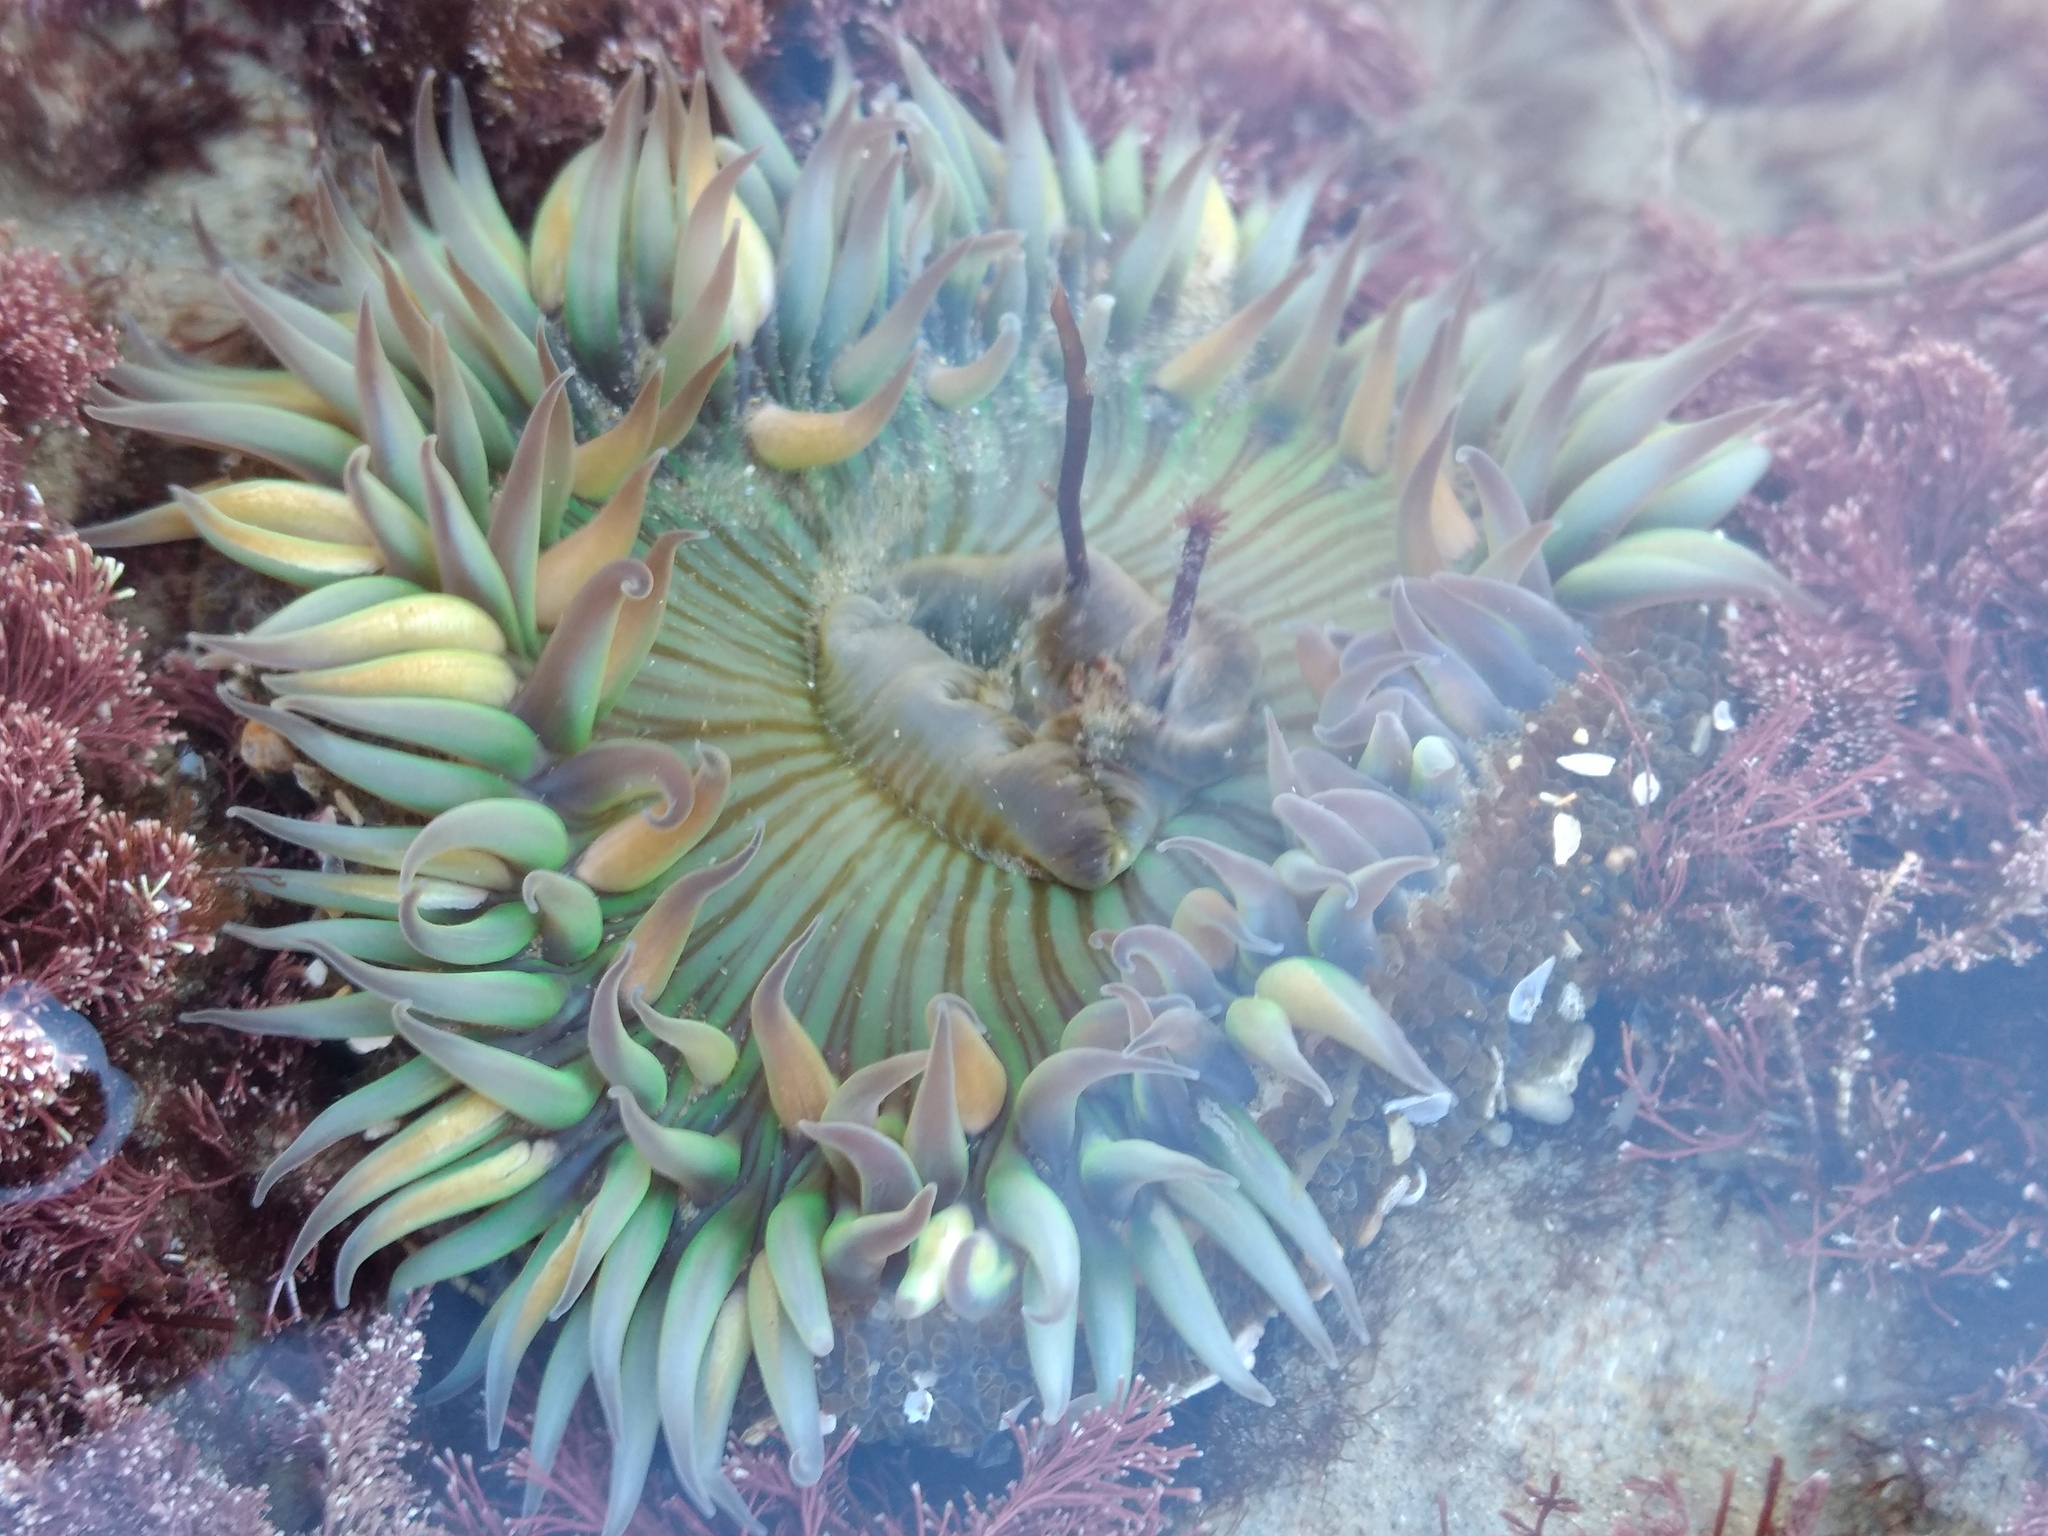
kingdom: Animalia
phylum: Cnidaria
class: Anthozoa
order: Actiniaria
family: Actiniidae
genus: Anthopleura
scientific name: Anthopleura sola
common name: Sun anemone
